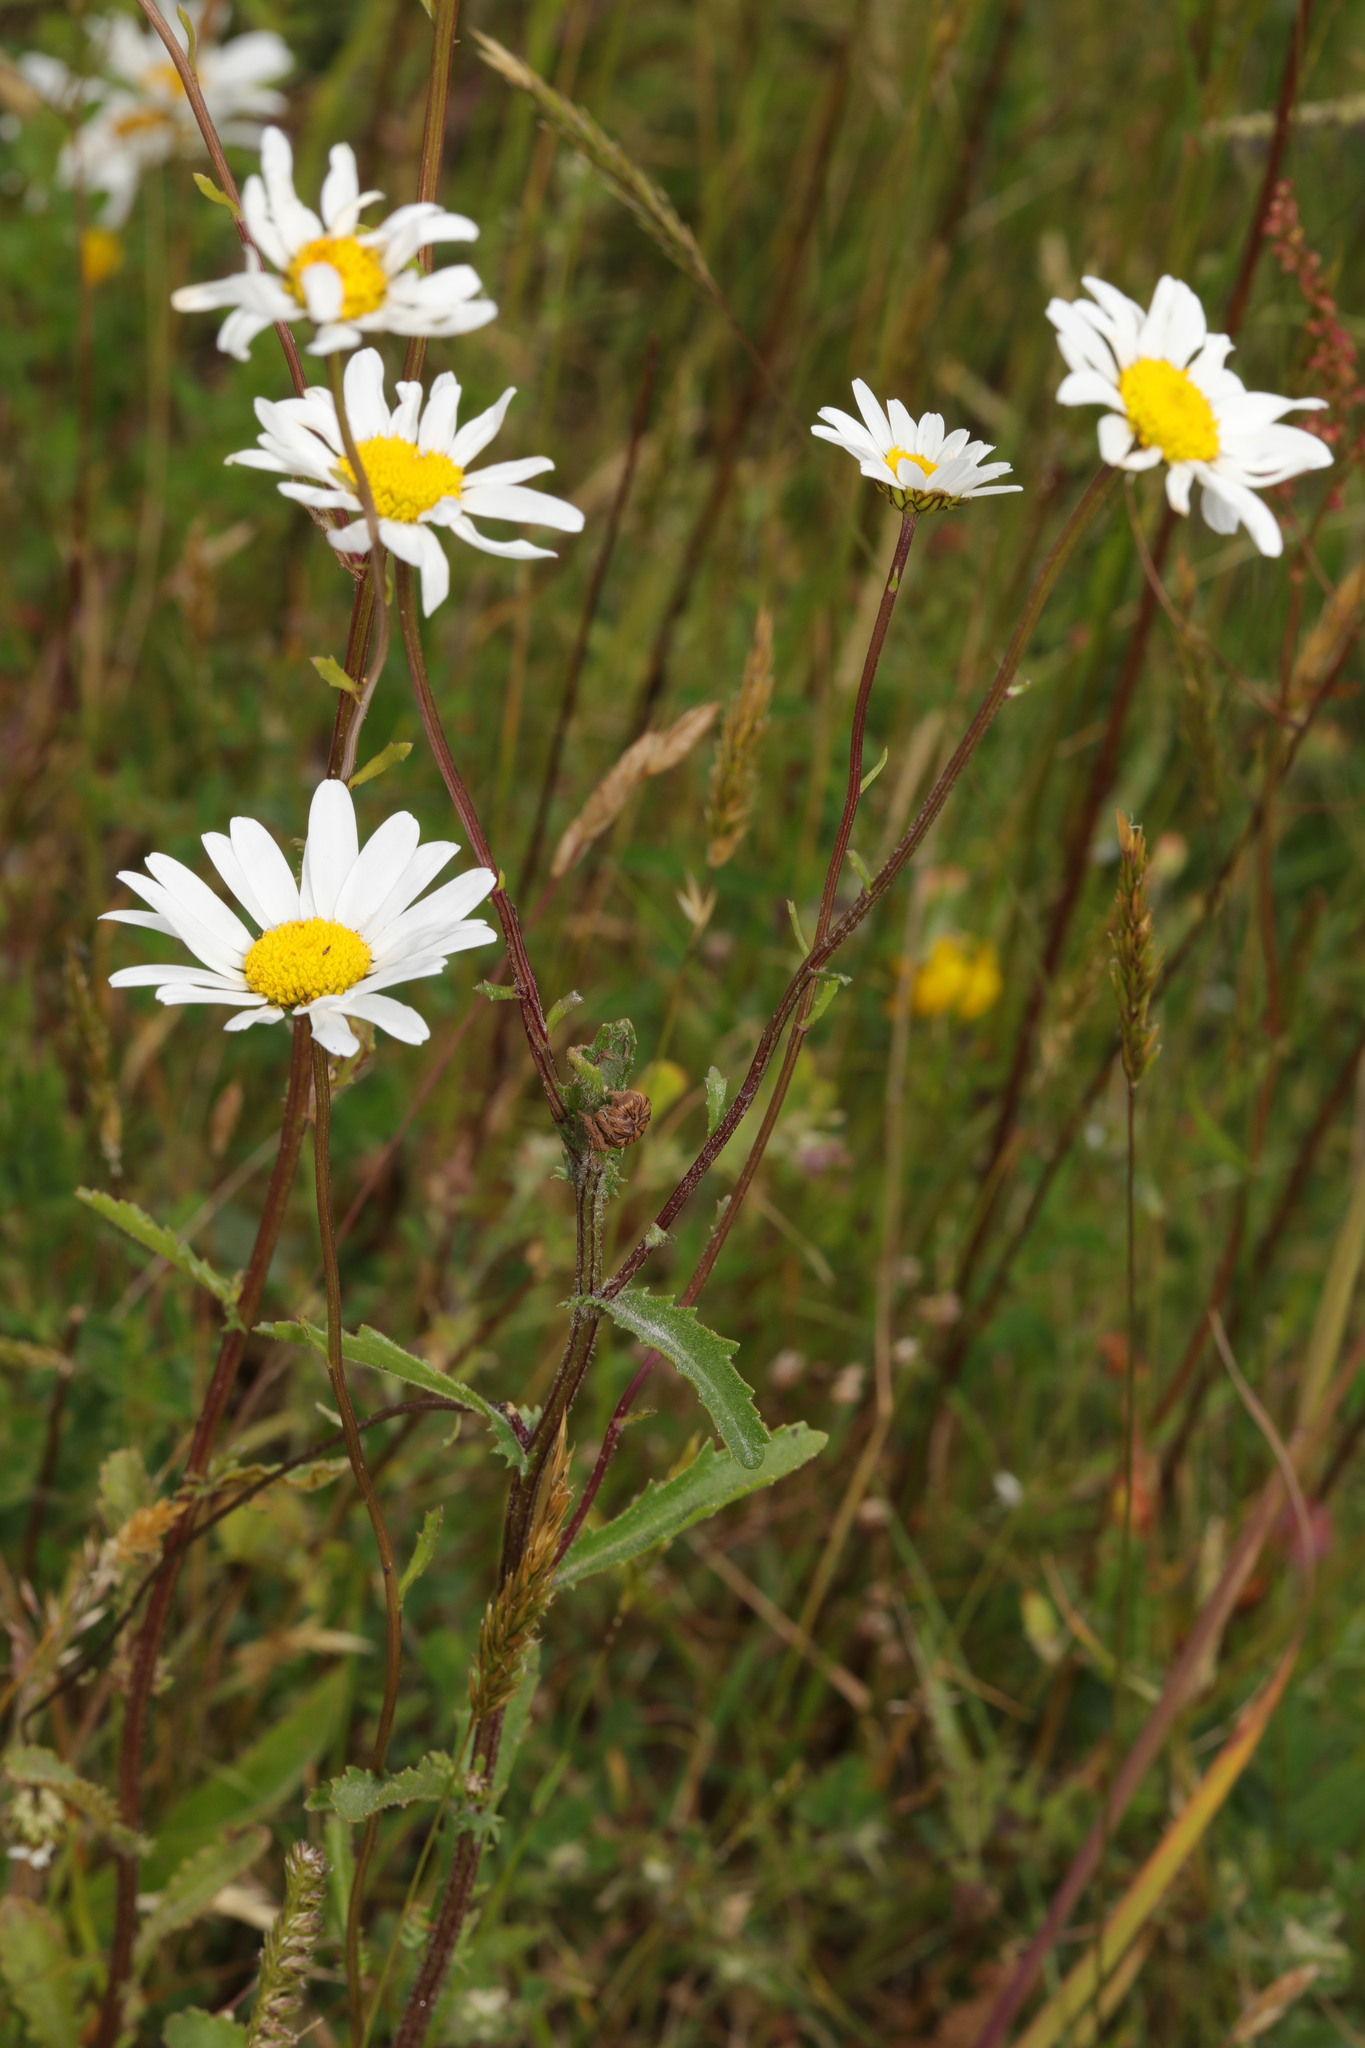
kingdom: Plantae
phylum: Tracheophyta
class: Magnoliopsida
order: Asterales
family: Asteraceae
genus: Leucanthemum
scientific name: Leucanthemum vulgare
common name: Oxeye daisy
